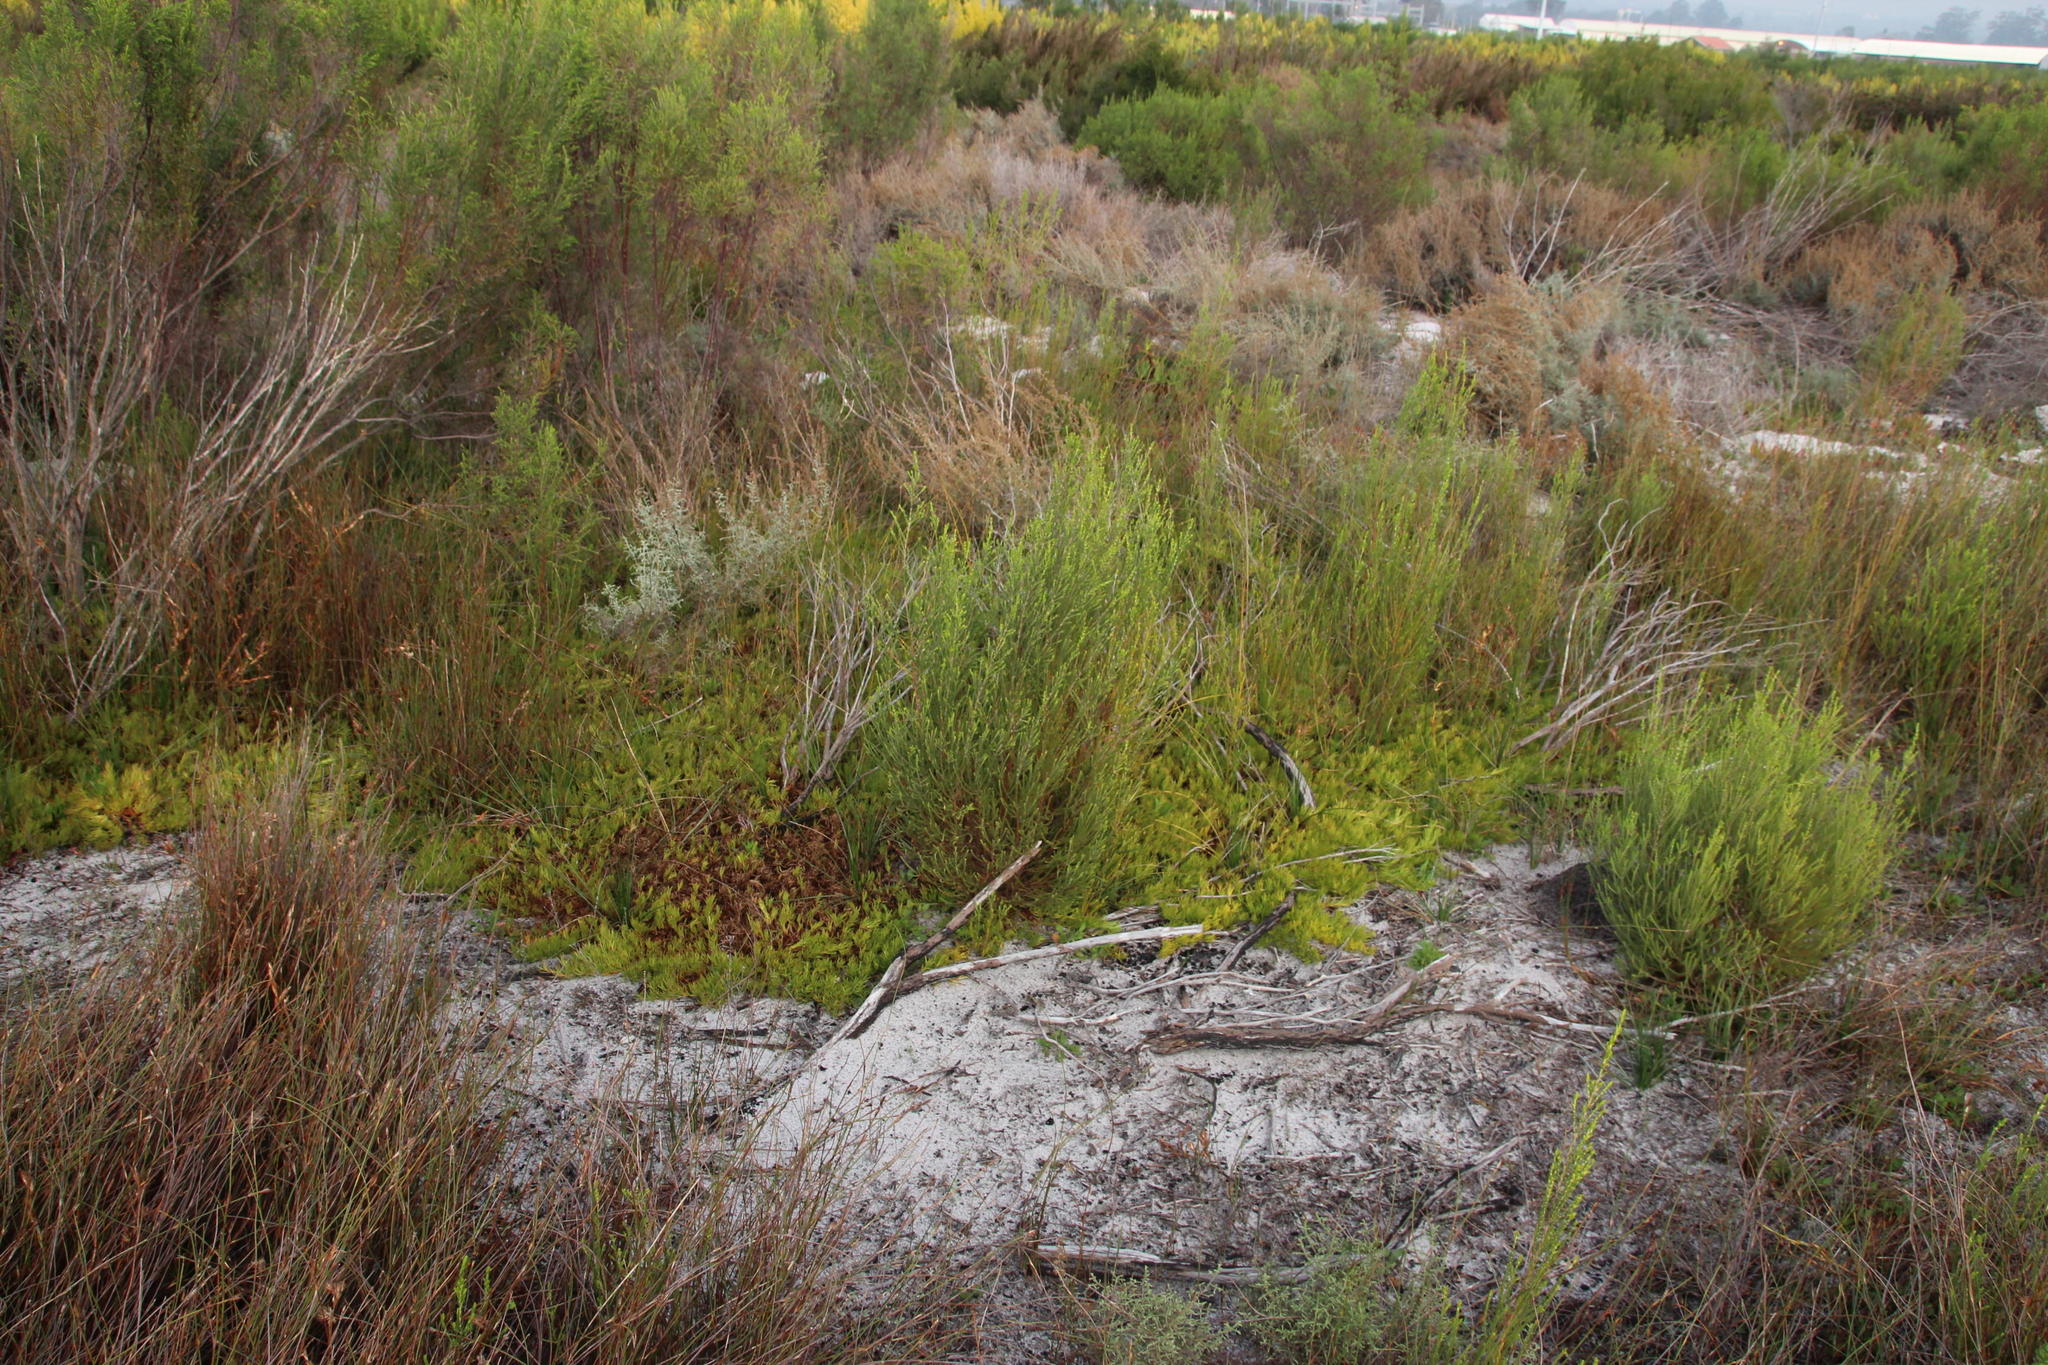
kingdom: Plantae
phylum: Tracheophyta
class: Magnoliopsida
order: Proteales
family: Proteaceae
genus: Diastella
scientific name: Diastella buekii
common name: Franschhoek silkypuff
